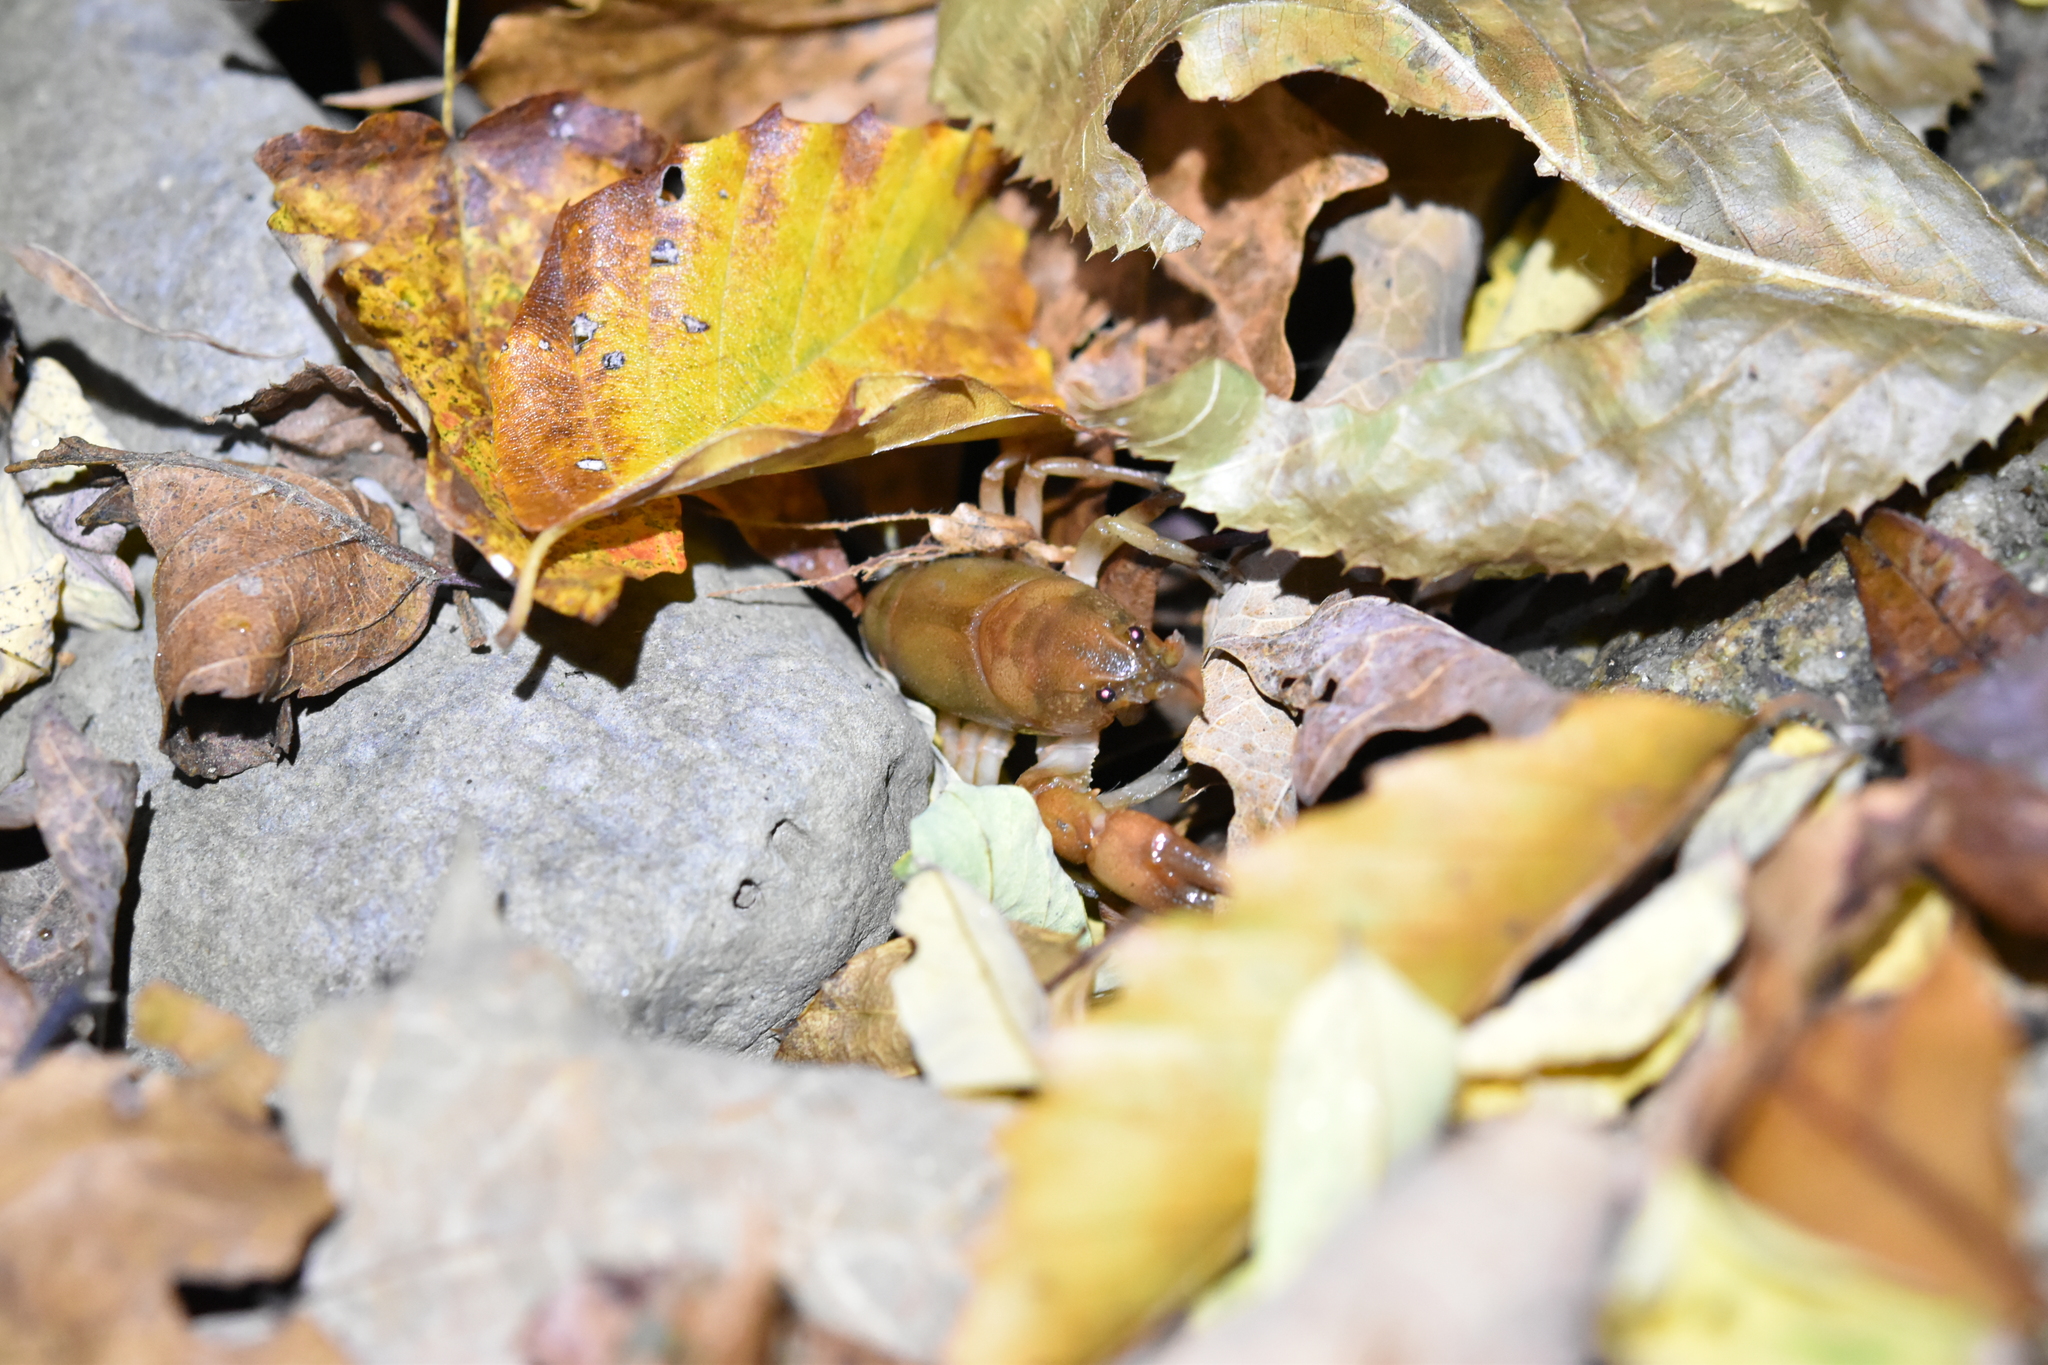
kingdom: Animalia
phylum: Arthropoda
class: Malacostraca
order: Decapoda
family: Cambaridae
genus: Cambarus
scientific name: Cambarus bartonii
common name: Appalachian brook crayfish
